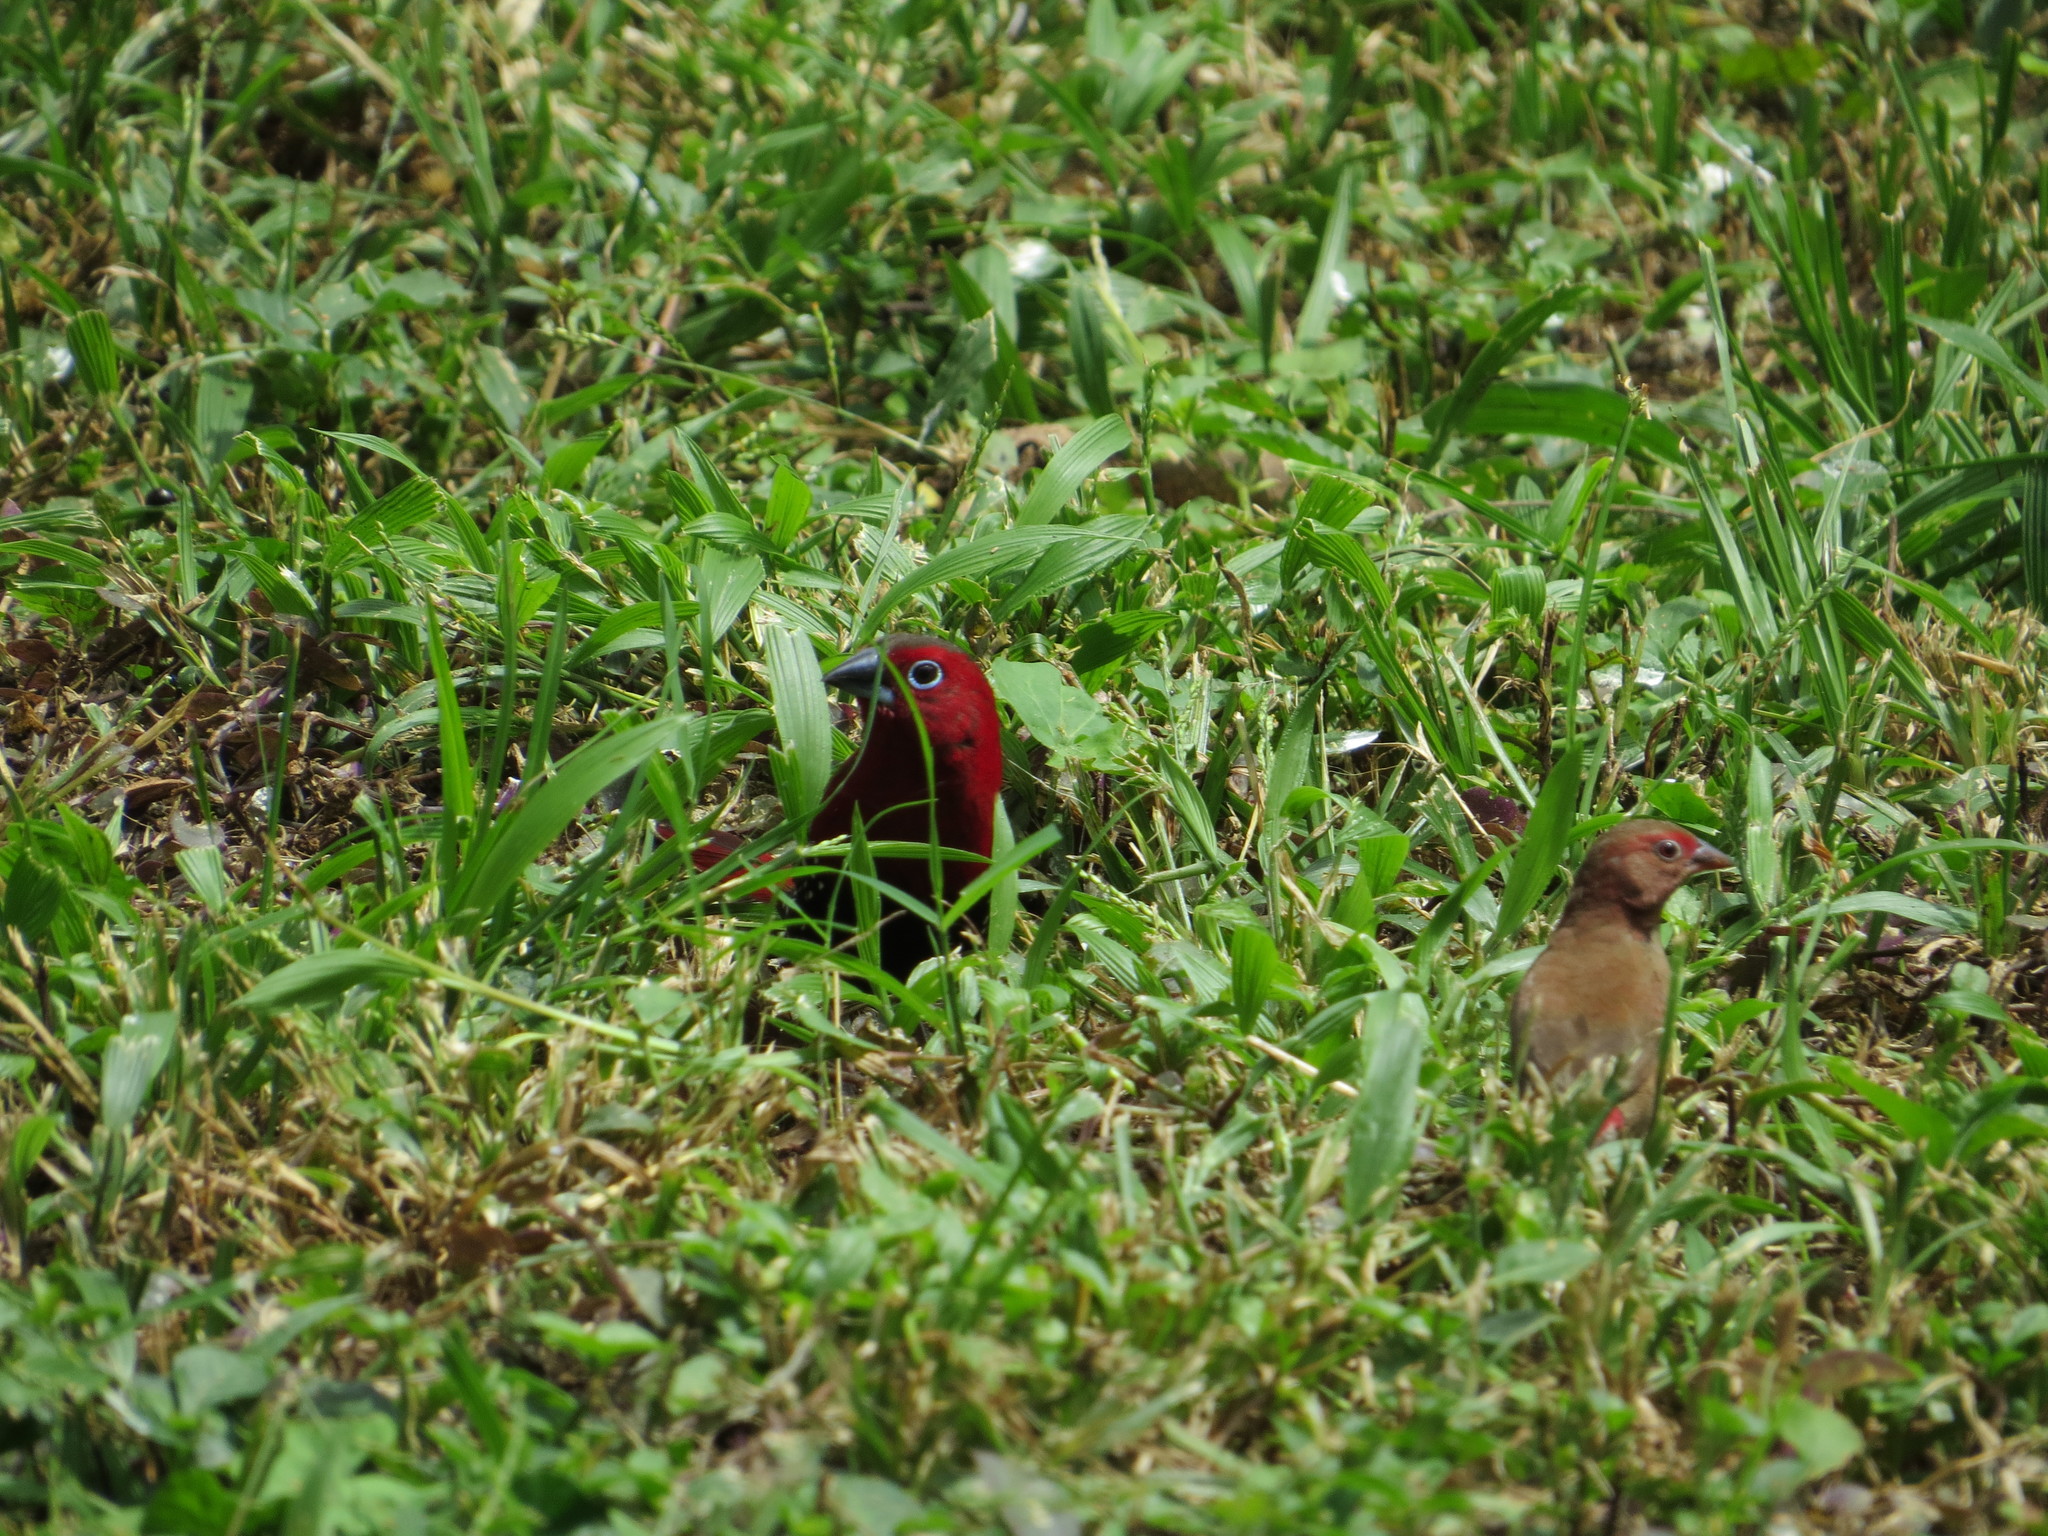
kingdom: Animalia
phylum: Chordata
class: Aves
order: Passeriformes
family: Estrildidae
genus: Hypargos
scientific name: Hypargos niveoguttatus
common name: Red-throated twinspot
